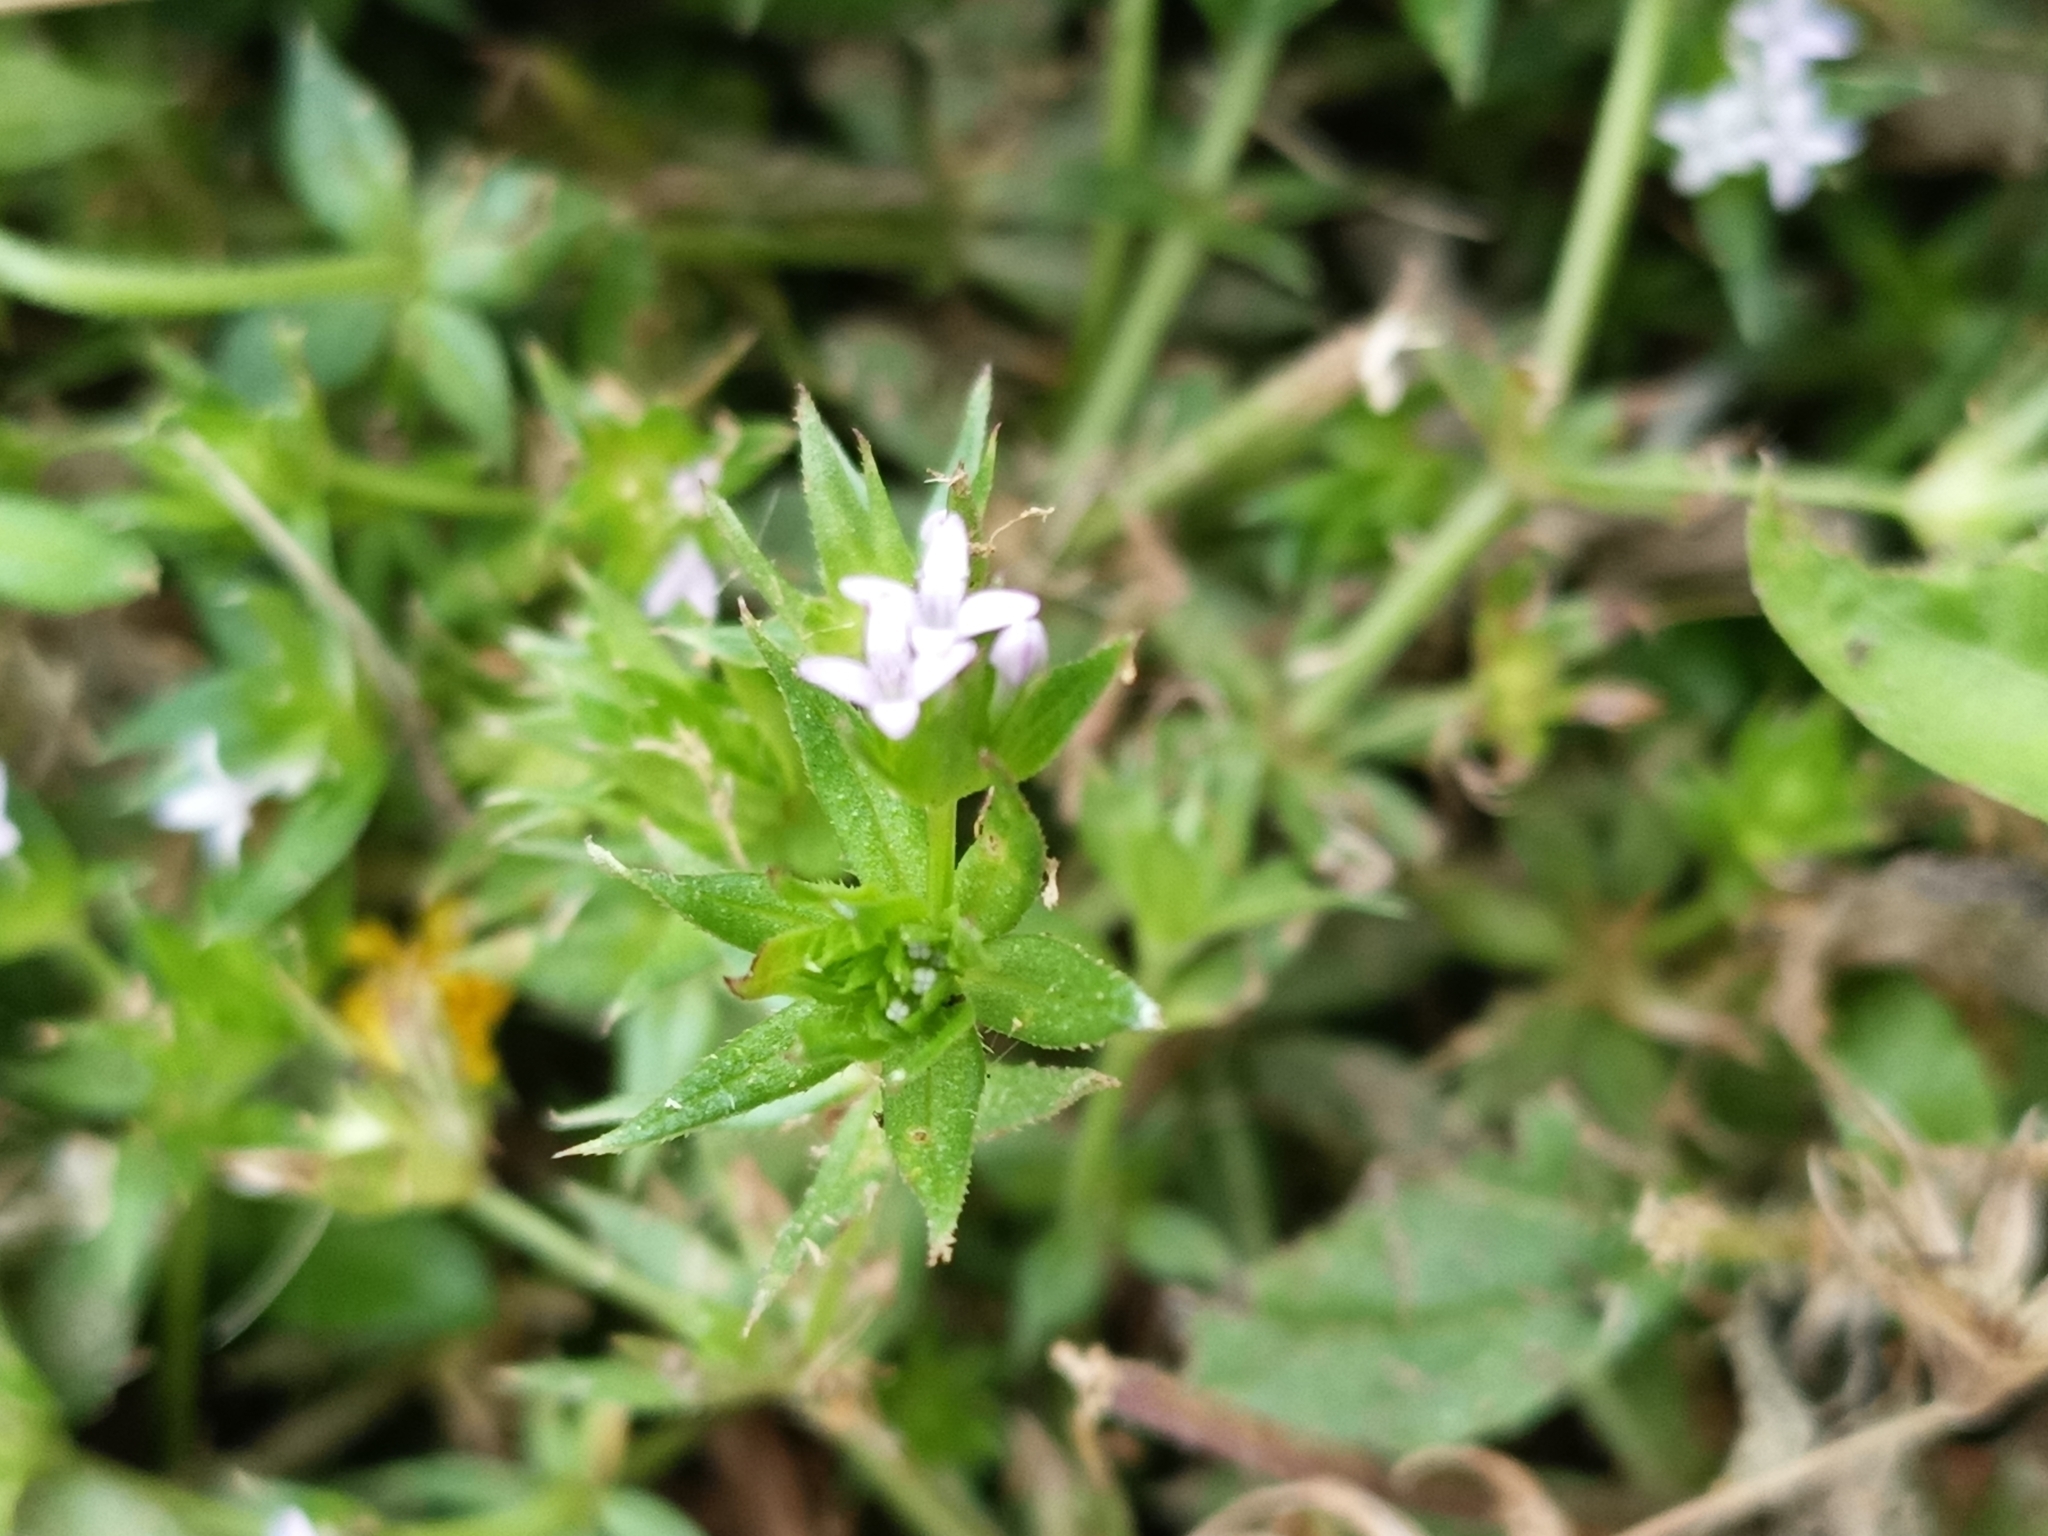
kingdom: Plantae
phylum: Tracheophyta
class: Magnoliopsida
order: Gentianales
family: Rubiaceae
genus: Sherardia
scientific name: Sherardia arvensis
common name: Field madder
